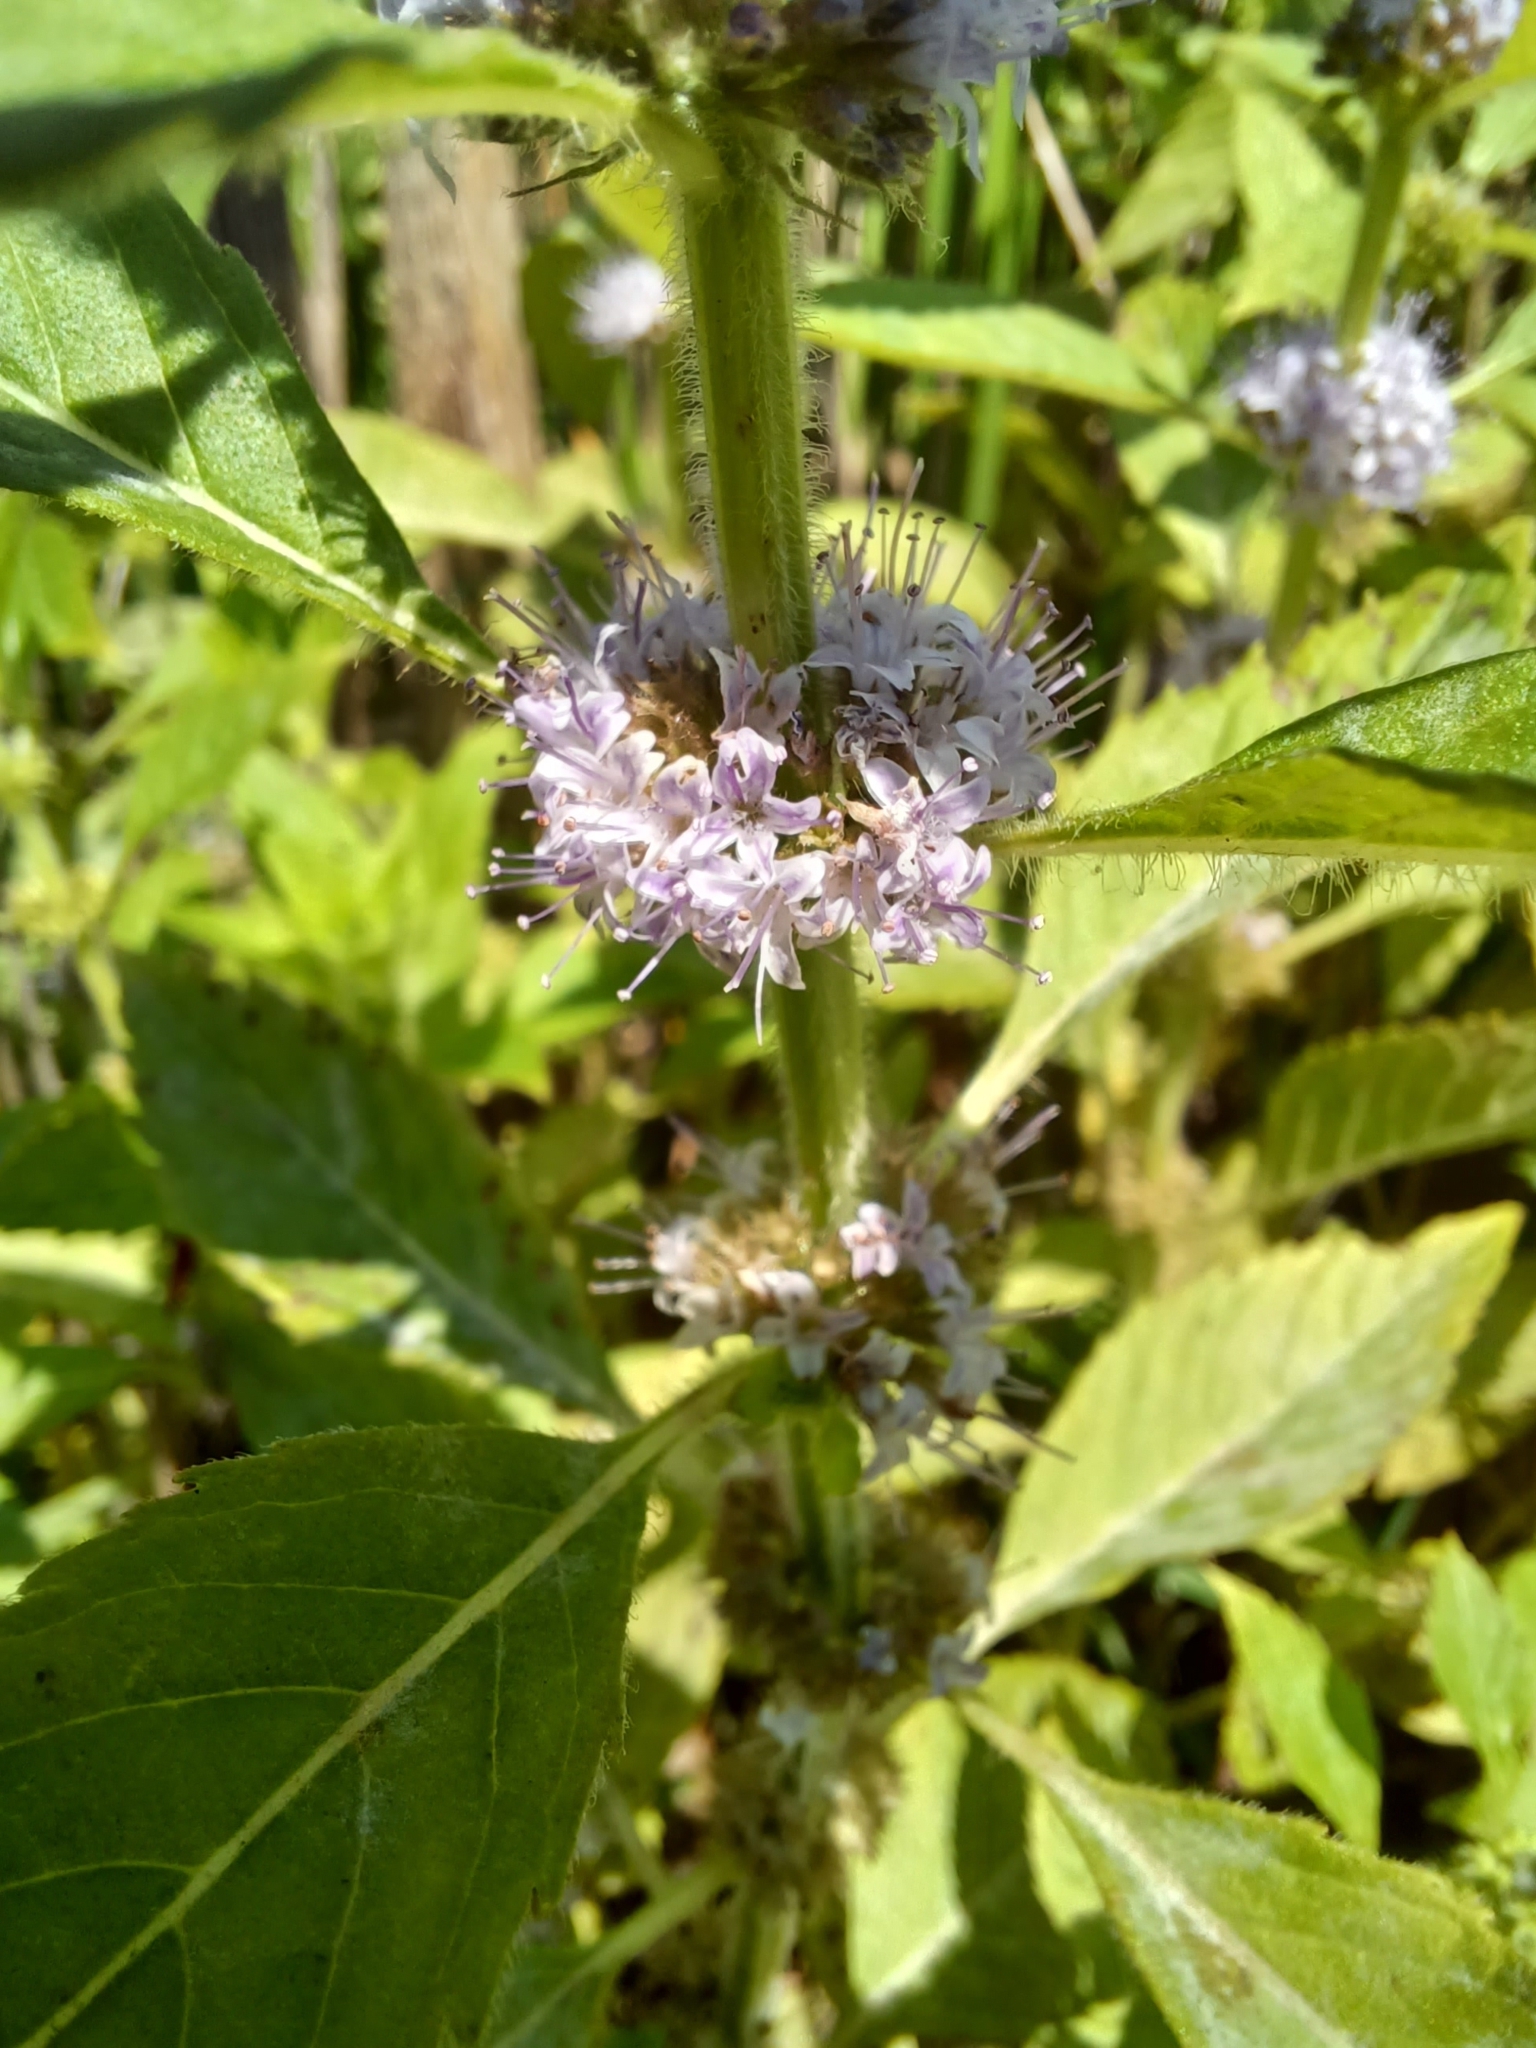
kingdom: Plantae
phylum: Tracheophyta
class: Magnoliopsida
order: Lamiales
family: Lamiaceae
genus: Mentha
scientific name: Mentha canadensis
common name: American corn mint
